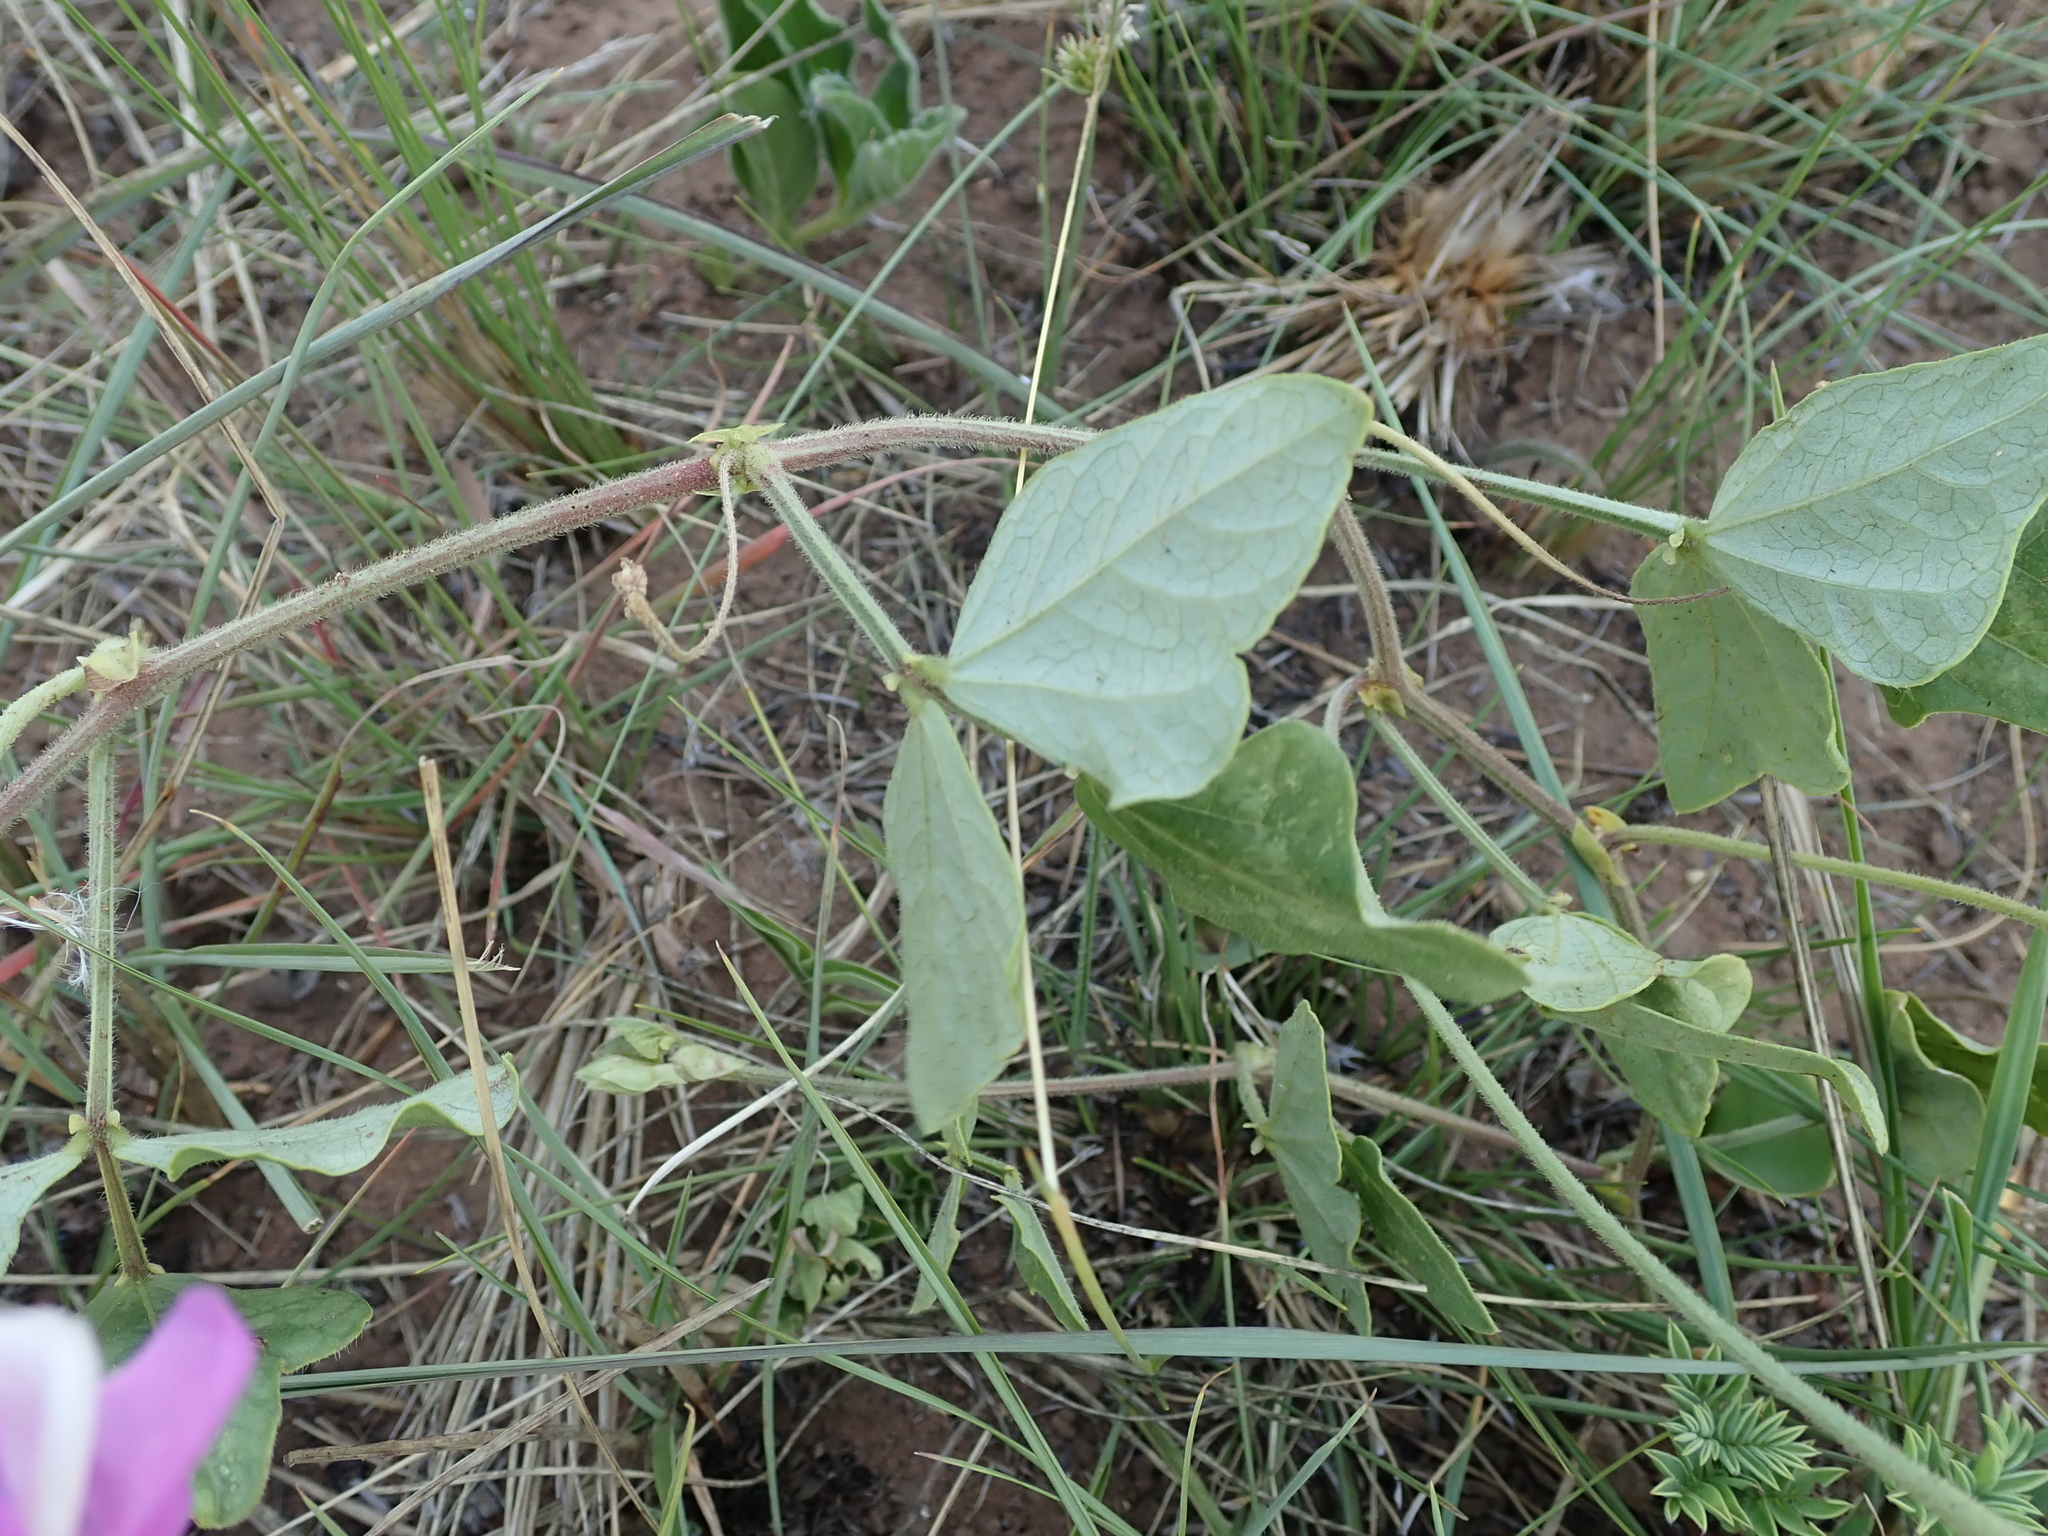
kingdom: Plantae
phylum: Tracheophyta
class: Magnoliopsida
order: Fabales
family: Fabaceae
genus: Vigna
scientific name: Vigna unguiculata
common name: Cowpea
